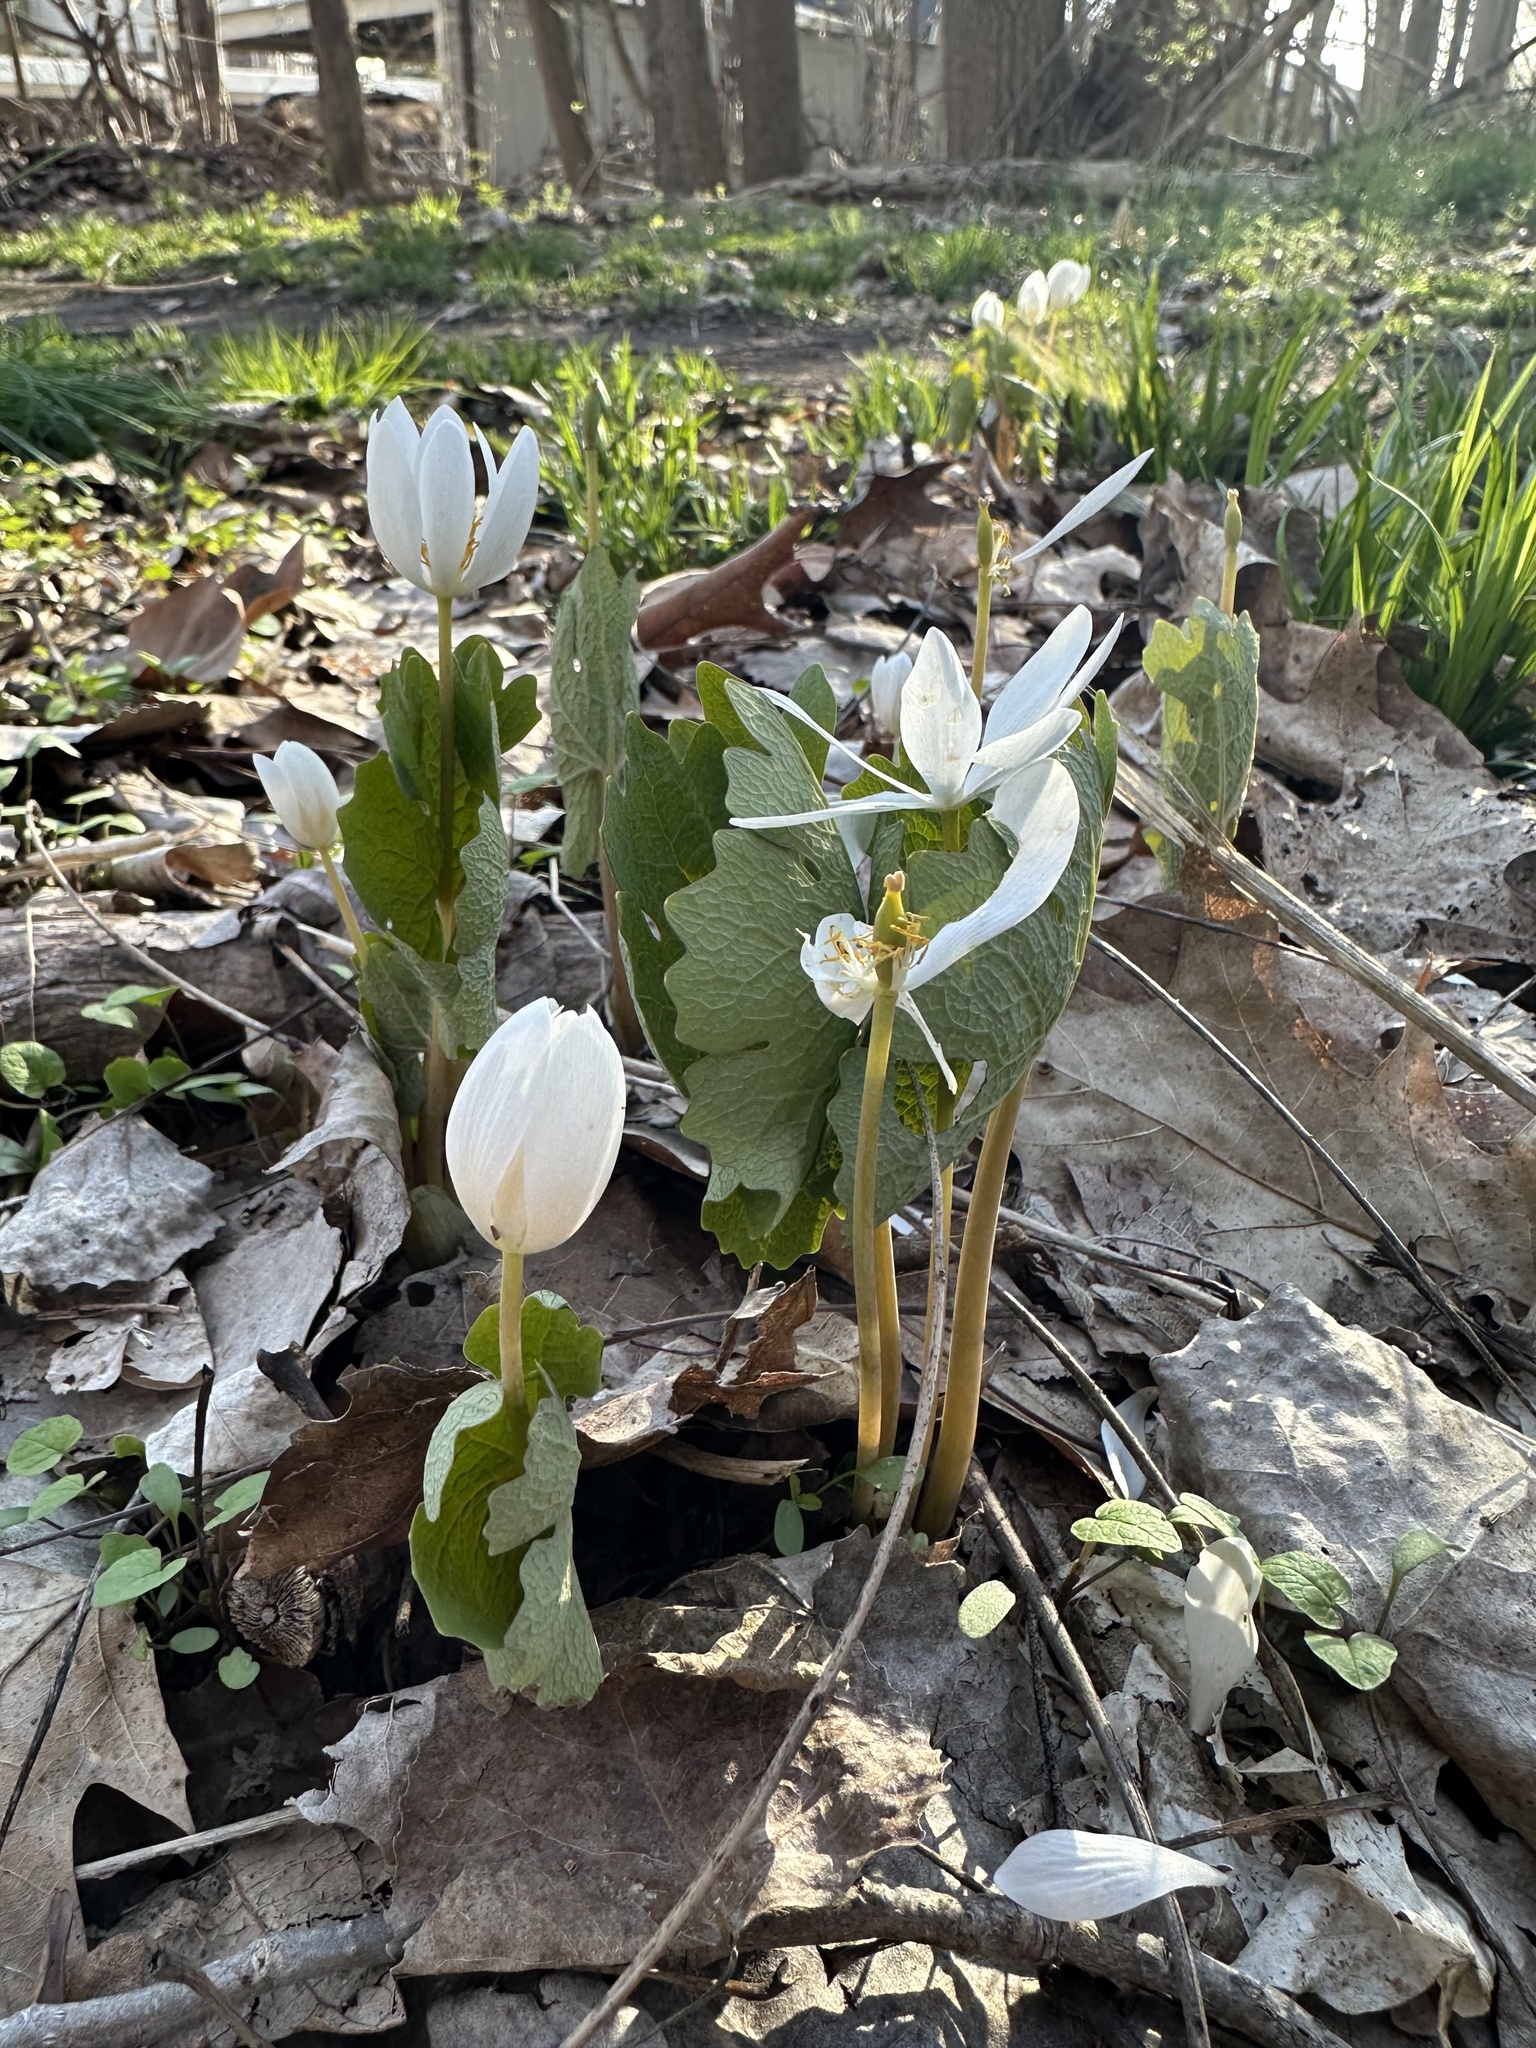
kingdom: Plantae
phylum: Tracheophyta
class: Magnoliopsida
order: Ranunculales
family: Papaveraceae
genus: Sanguinaria
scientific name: Sanguinaria canadensis
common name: Bloodroot
